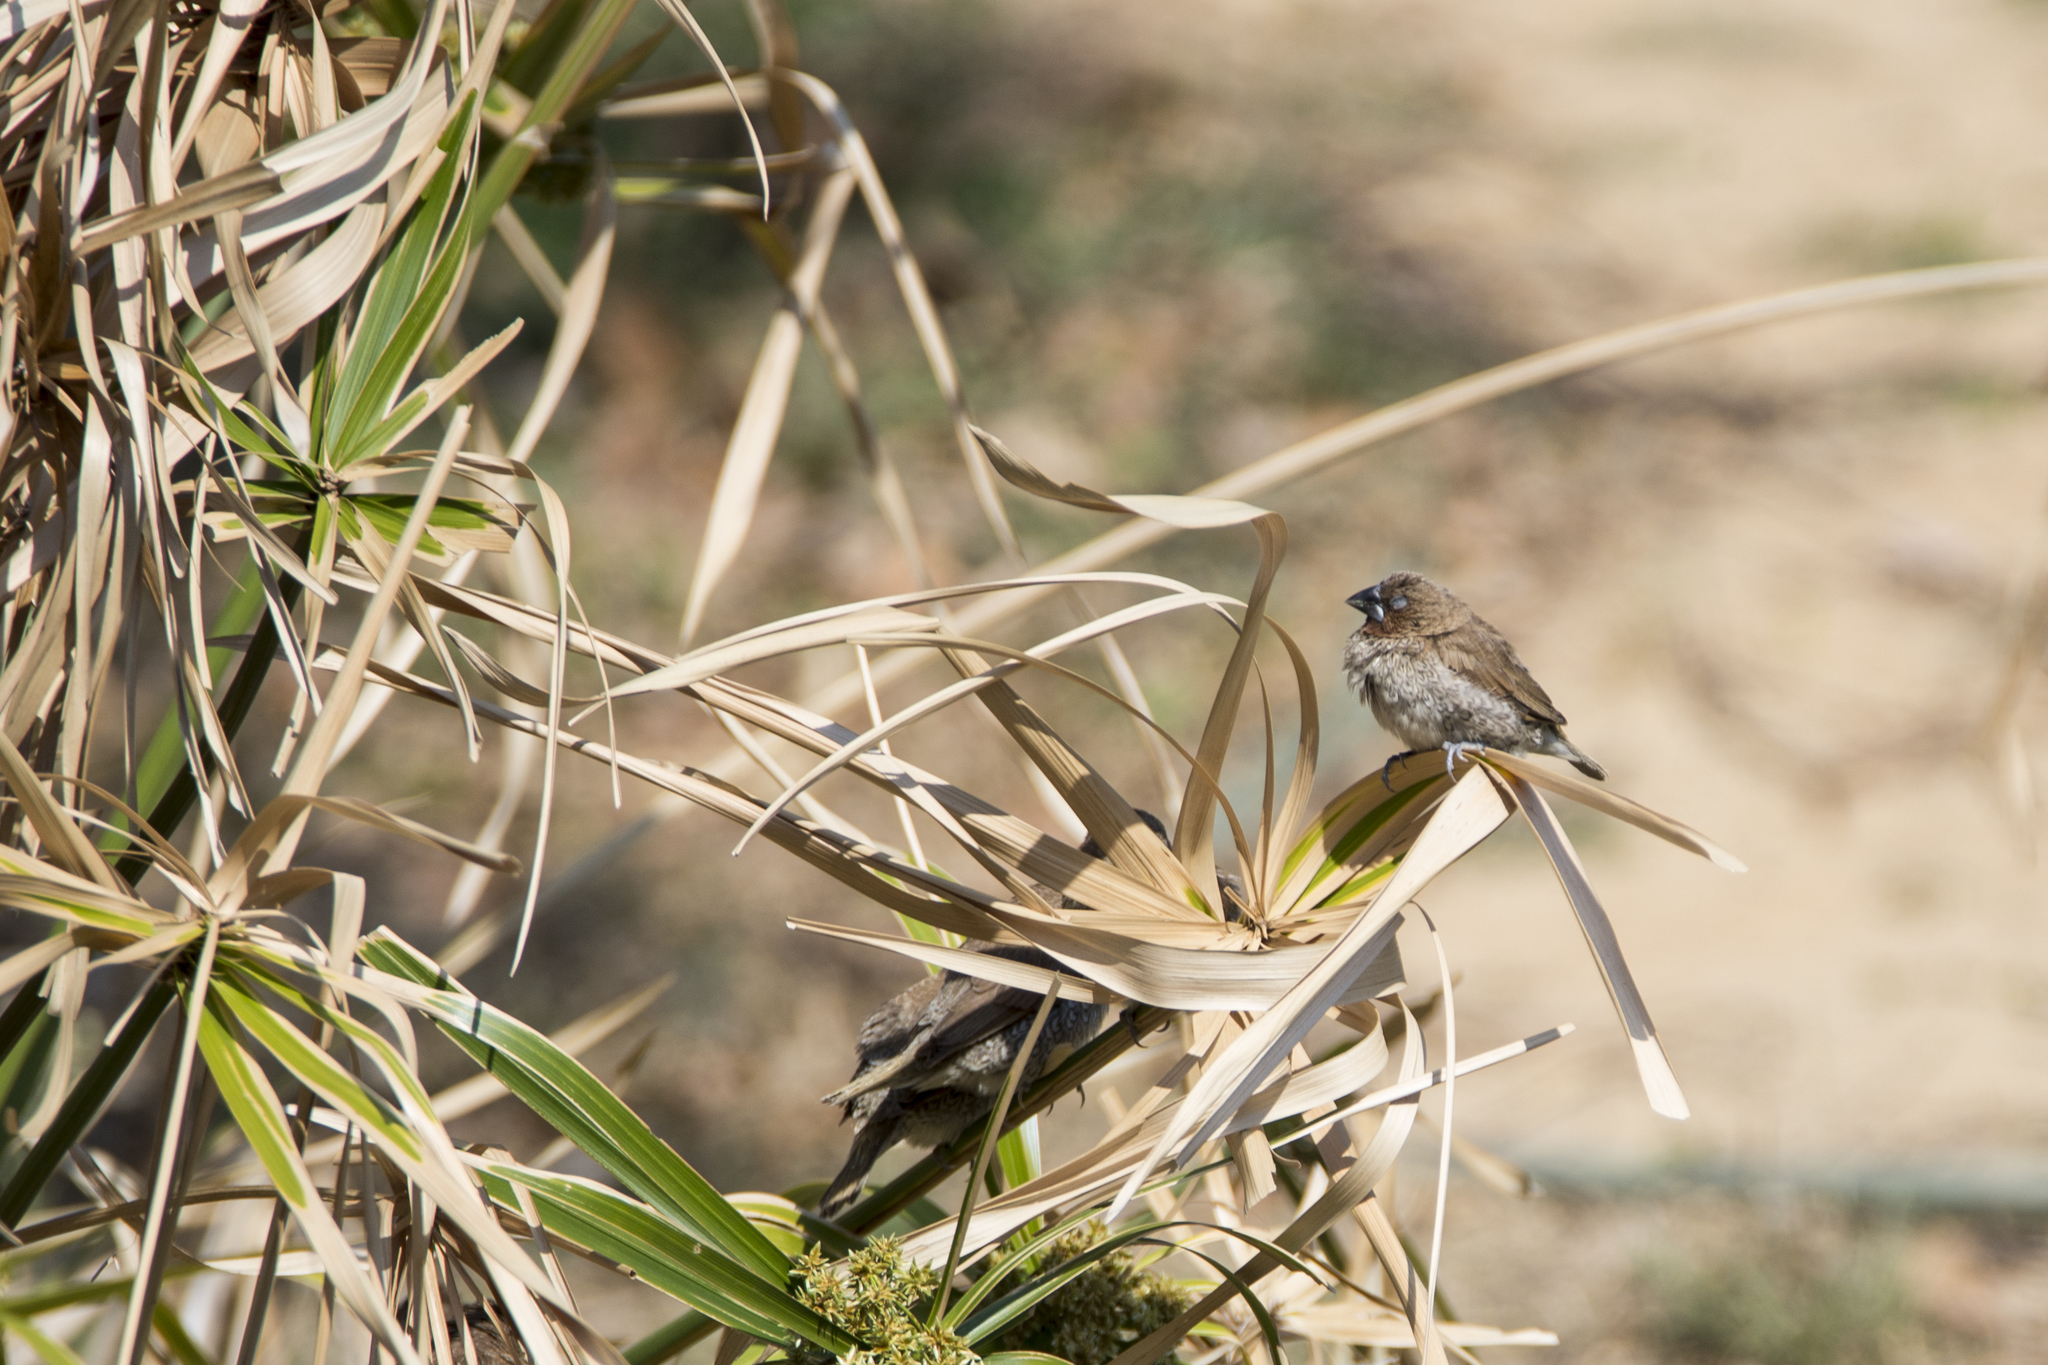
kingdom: Animalia
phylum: Chordata
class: Aves
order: Passeriformes
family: Estrildidae
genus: Lonchura
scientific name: Lonchura punctulata
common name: Scaly-breasted munia
